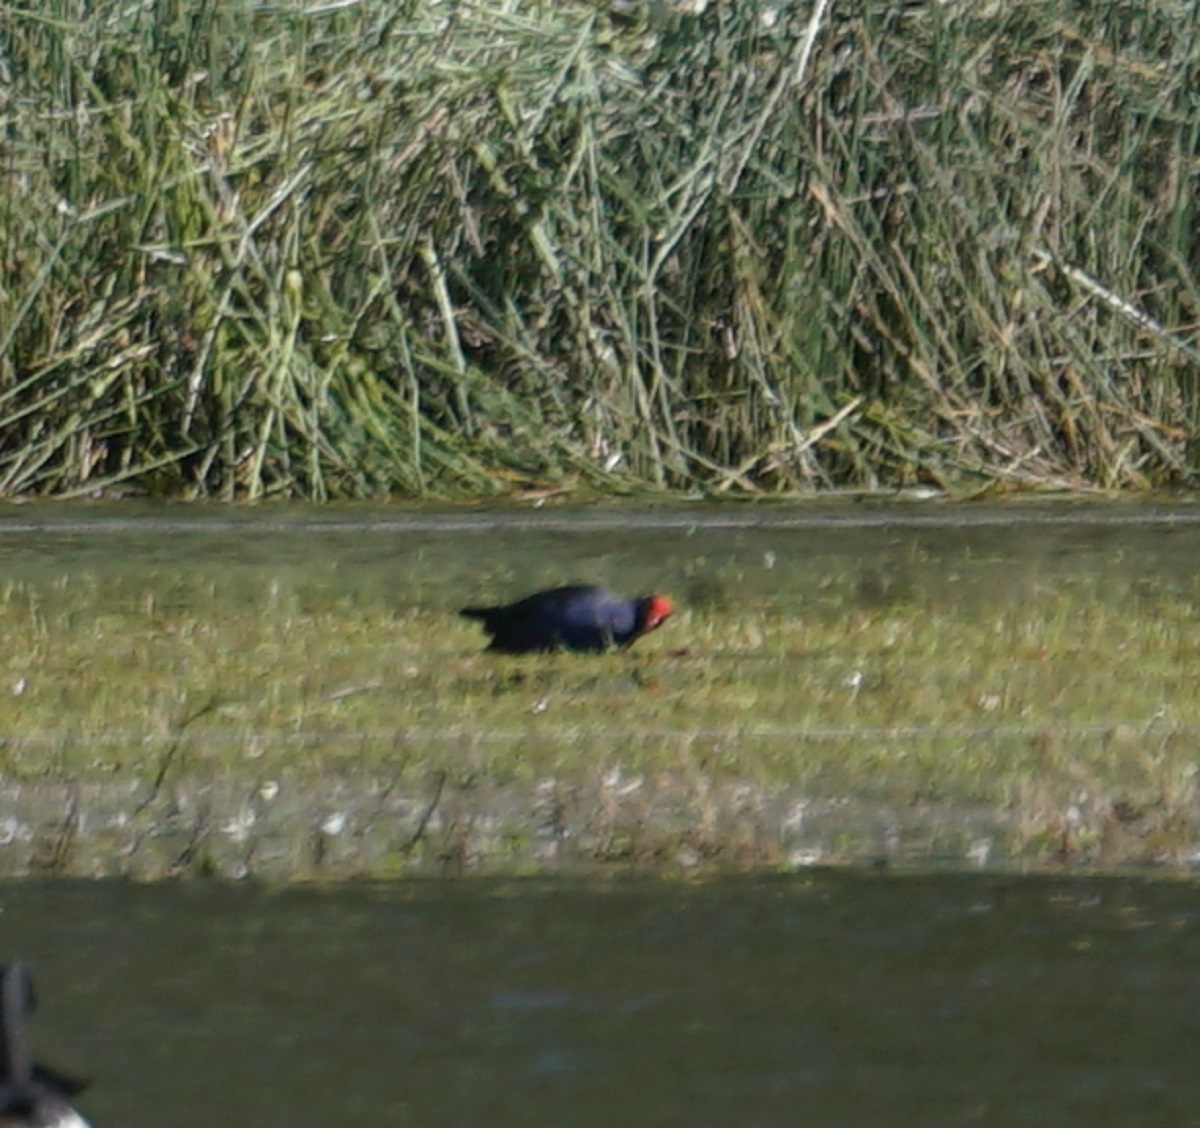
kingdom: Animalia
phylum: Chordata
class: Aves
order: Gruiformes
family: Rallidae
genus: Porphyrio
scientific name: Porphyrio melanotus
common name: Australasian swamphen
